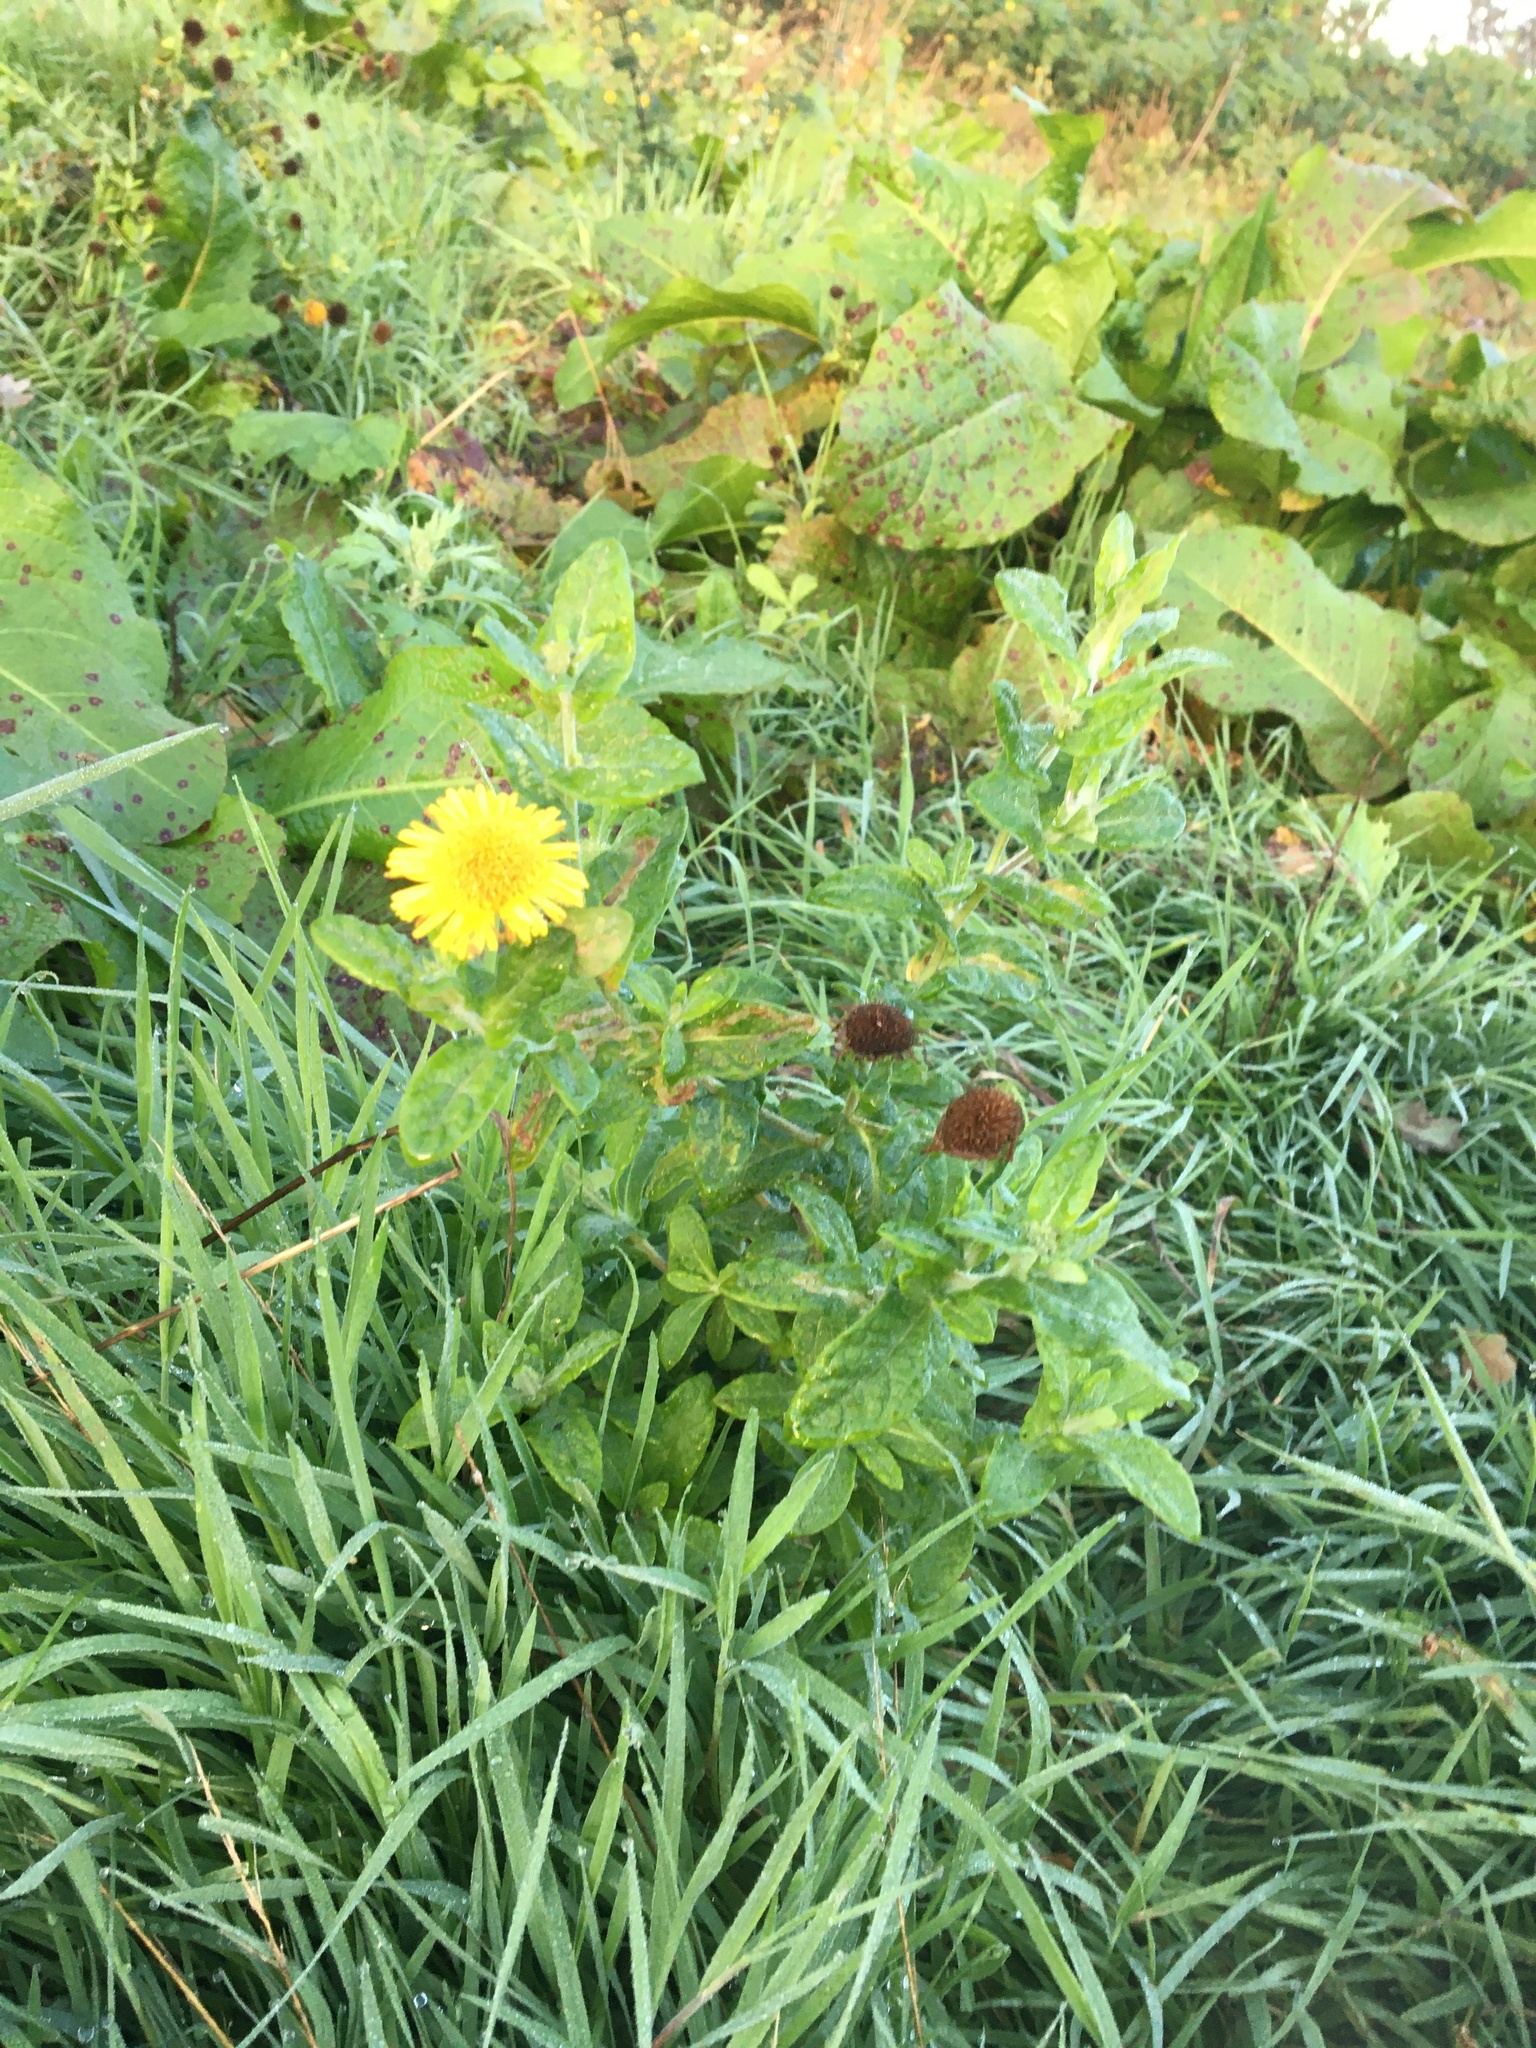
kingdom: Plantae
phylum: Tracheophyta
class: Magnoliopsida
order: Asterales
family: Asteraceae
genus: Pulicaria
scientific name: Pulicaria dysenterica
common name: Common fleabane
